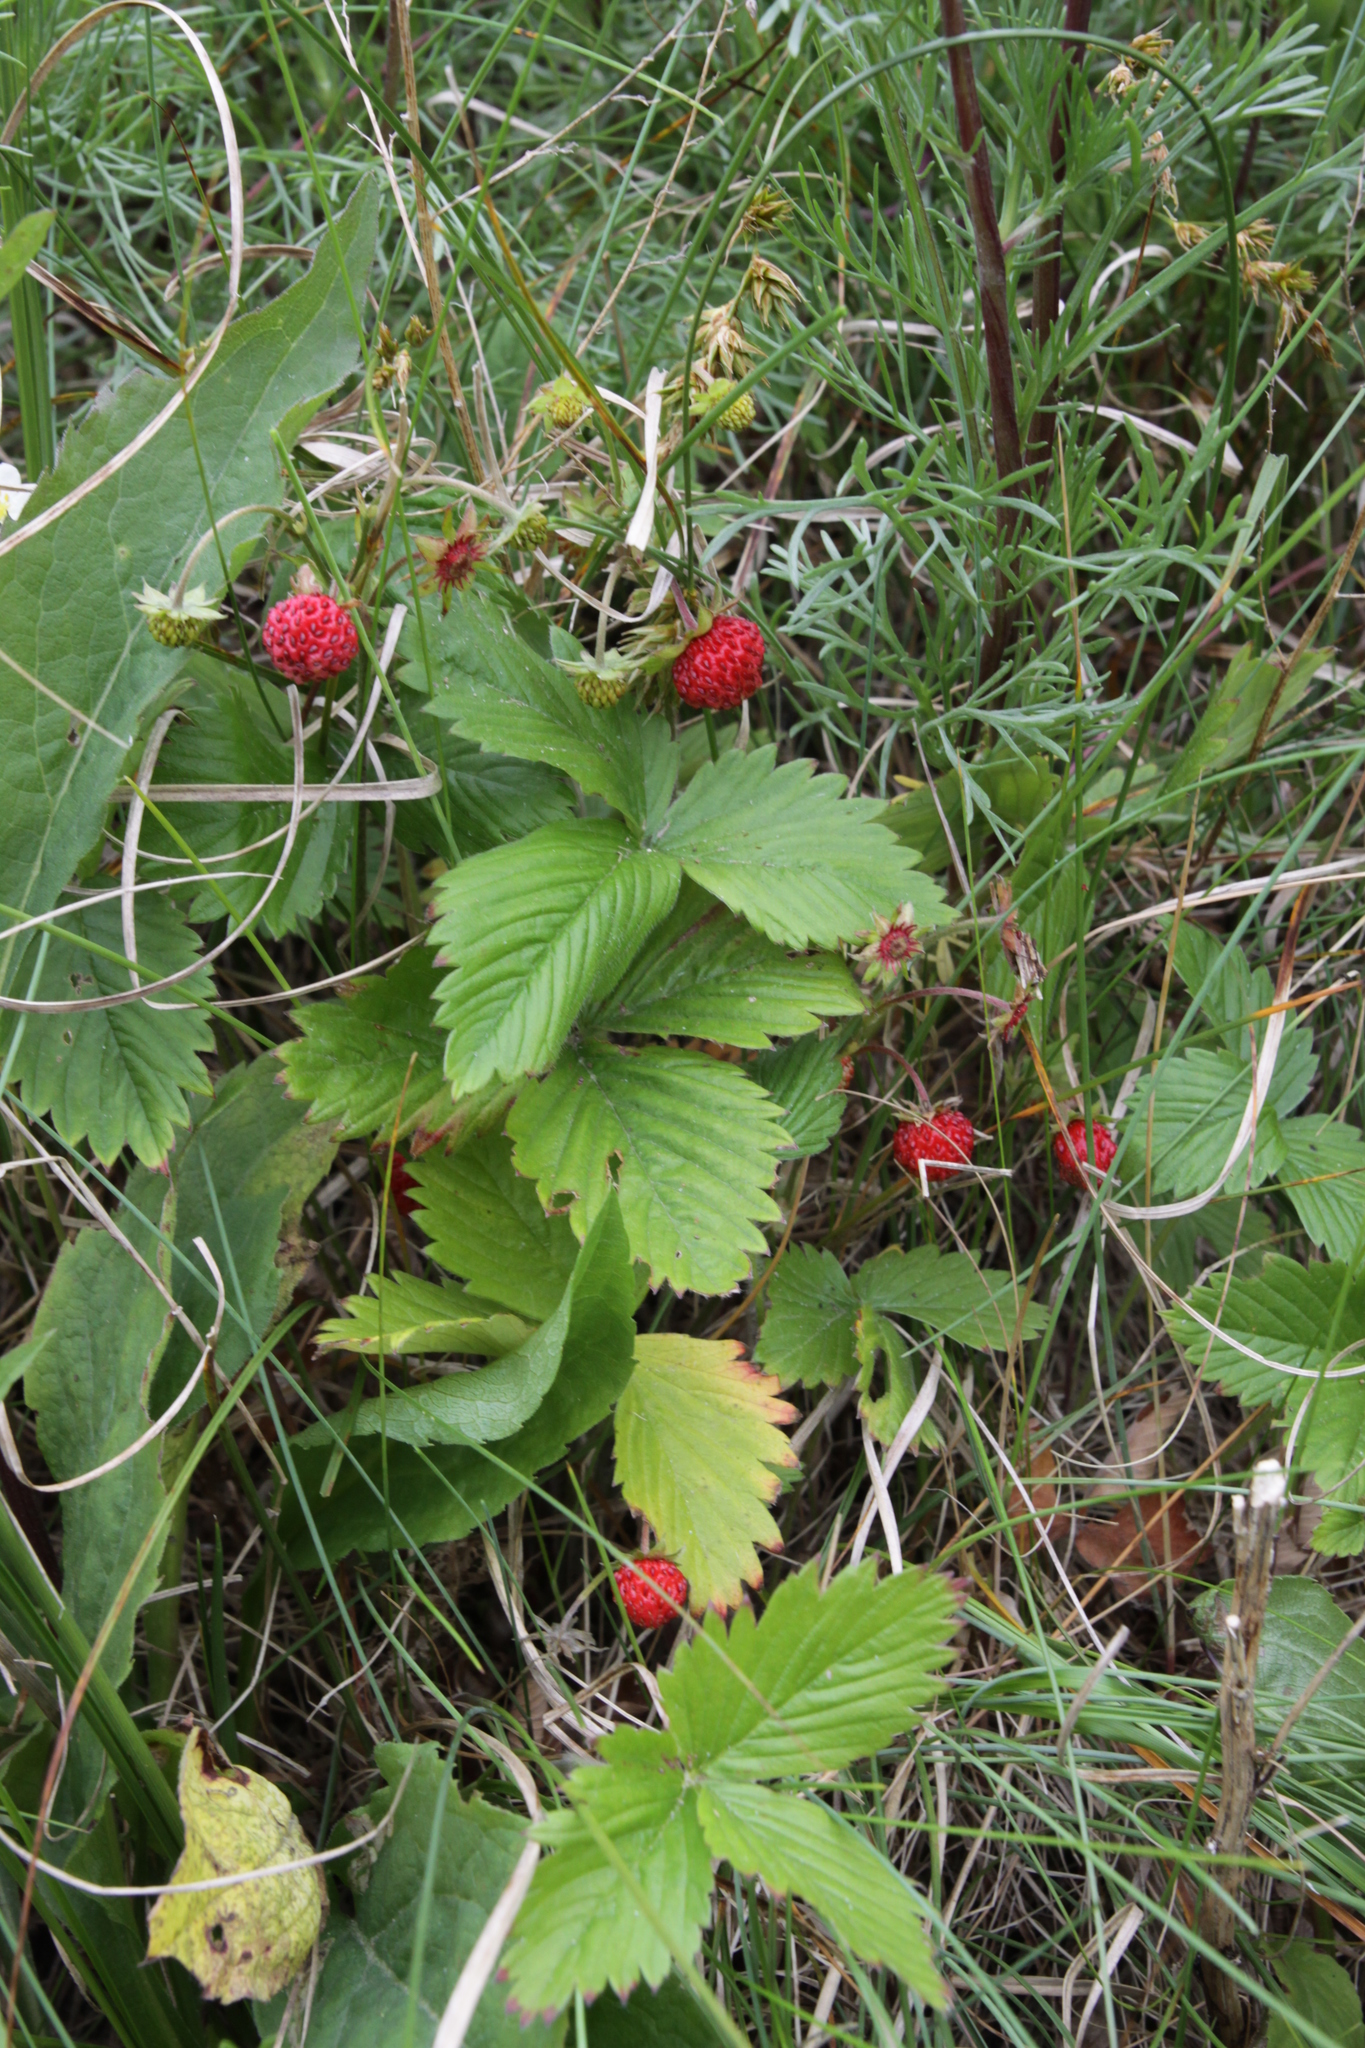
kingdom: Plantae
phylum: Tracheophyta
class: Magnoliopsida
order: Rosales
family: Rosaceae
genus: Fragaria
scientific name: Fragaria vesca
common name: Wild strawberry
